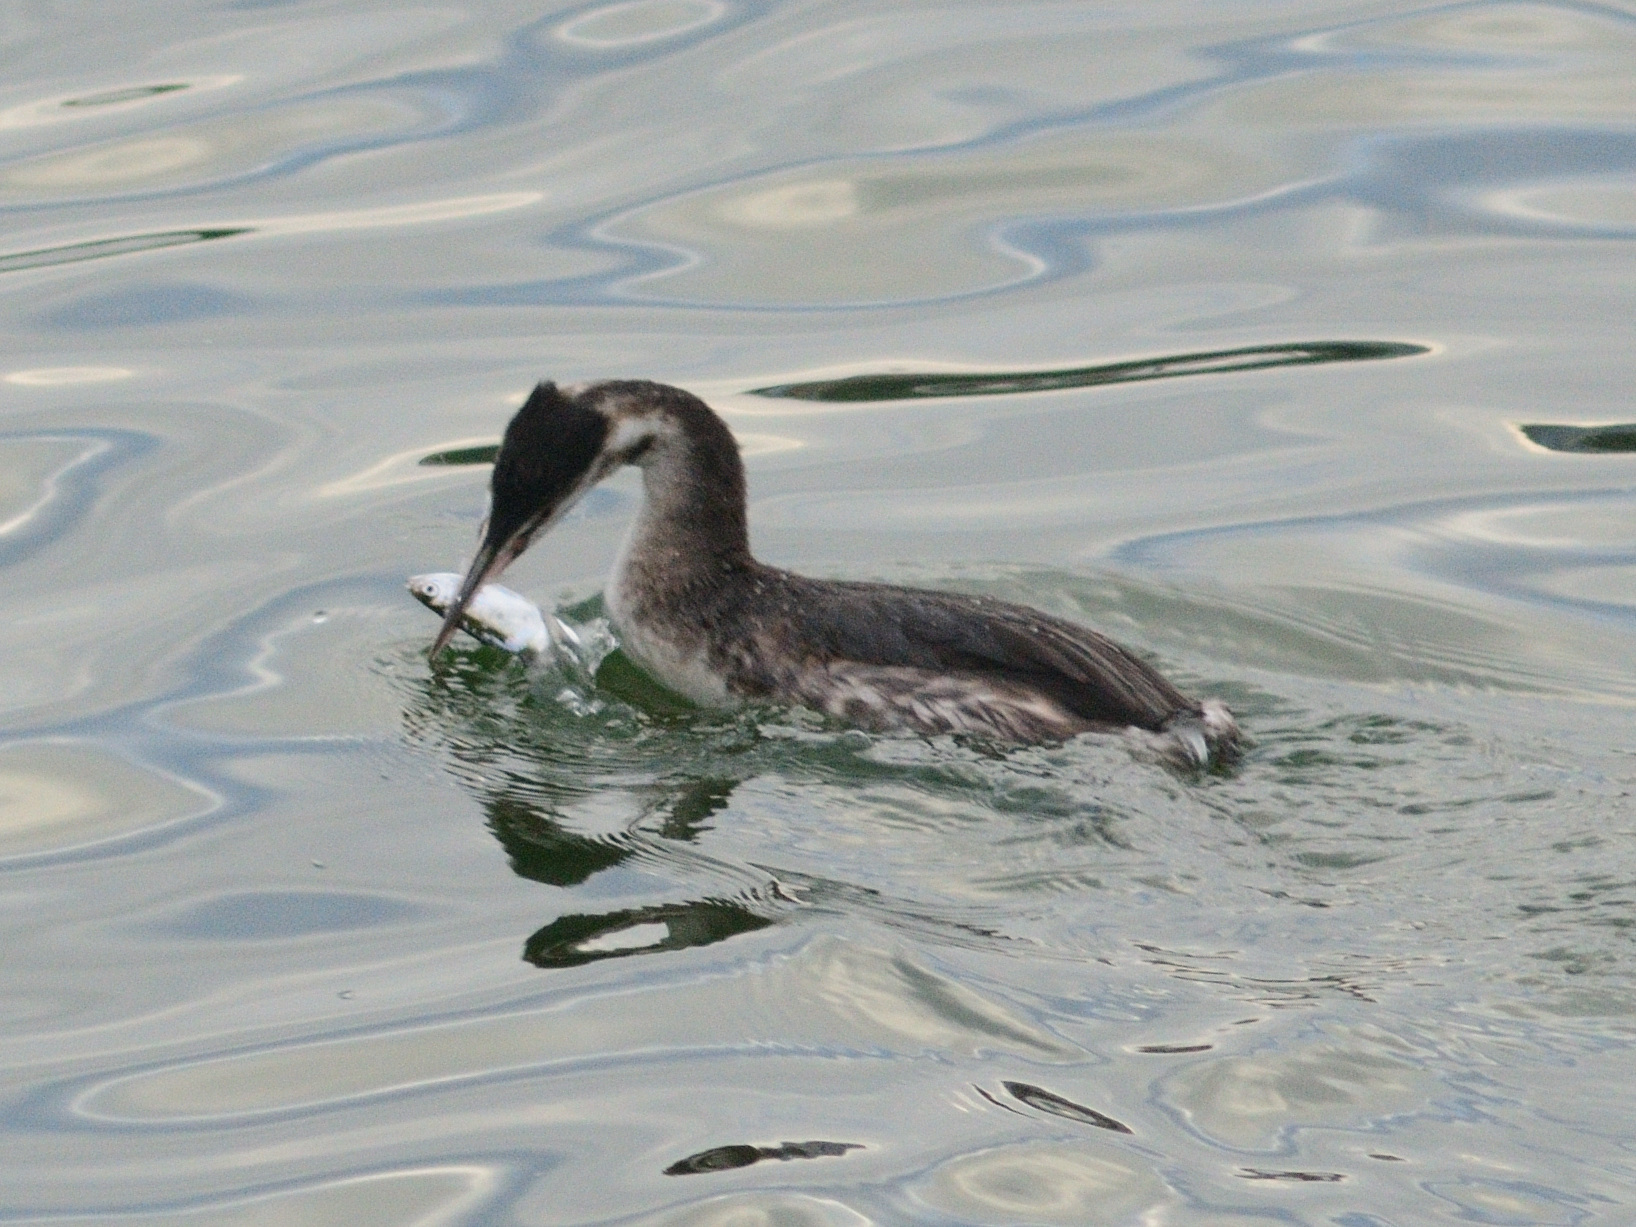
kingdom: Animalia
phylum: Chordata
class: Aves
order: Podicipediformes
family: Podicipedidae
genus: Podiceps
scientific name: Podiceps cristatus
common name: Great crested grebe
